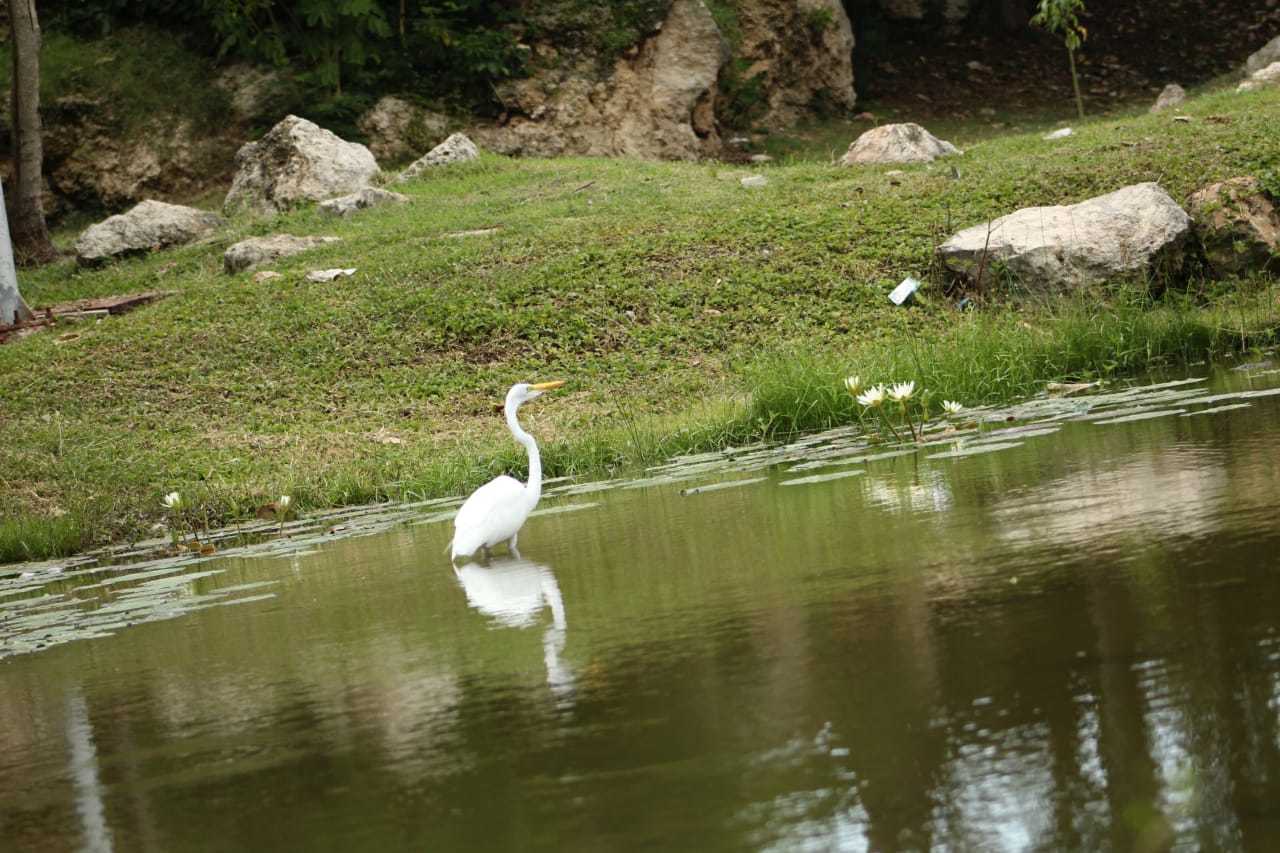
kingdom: Animalia
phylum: Chordata
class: Aves
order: Pelecaniformes
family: Ardeidae
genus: Ardea
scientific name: Ardea alba
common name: Great egret
